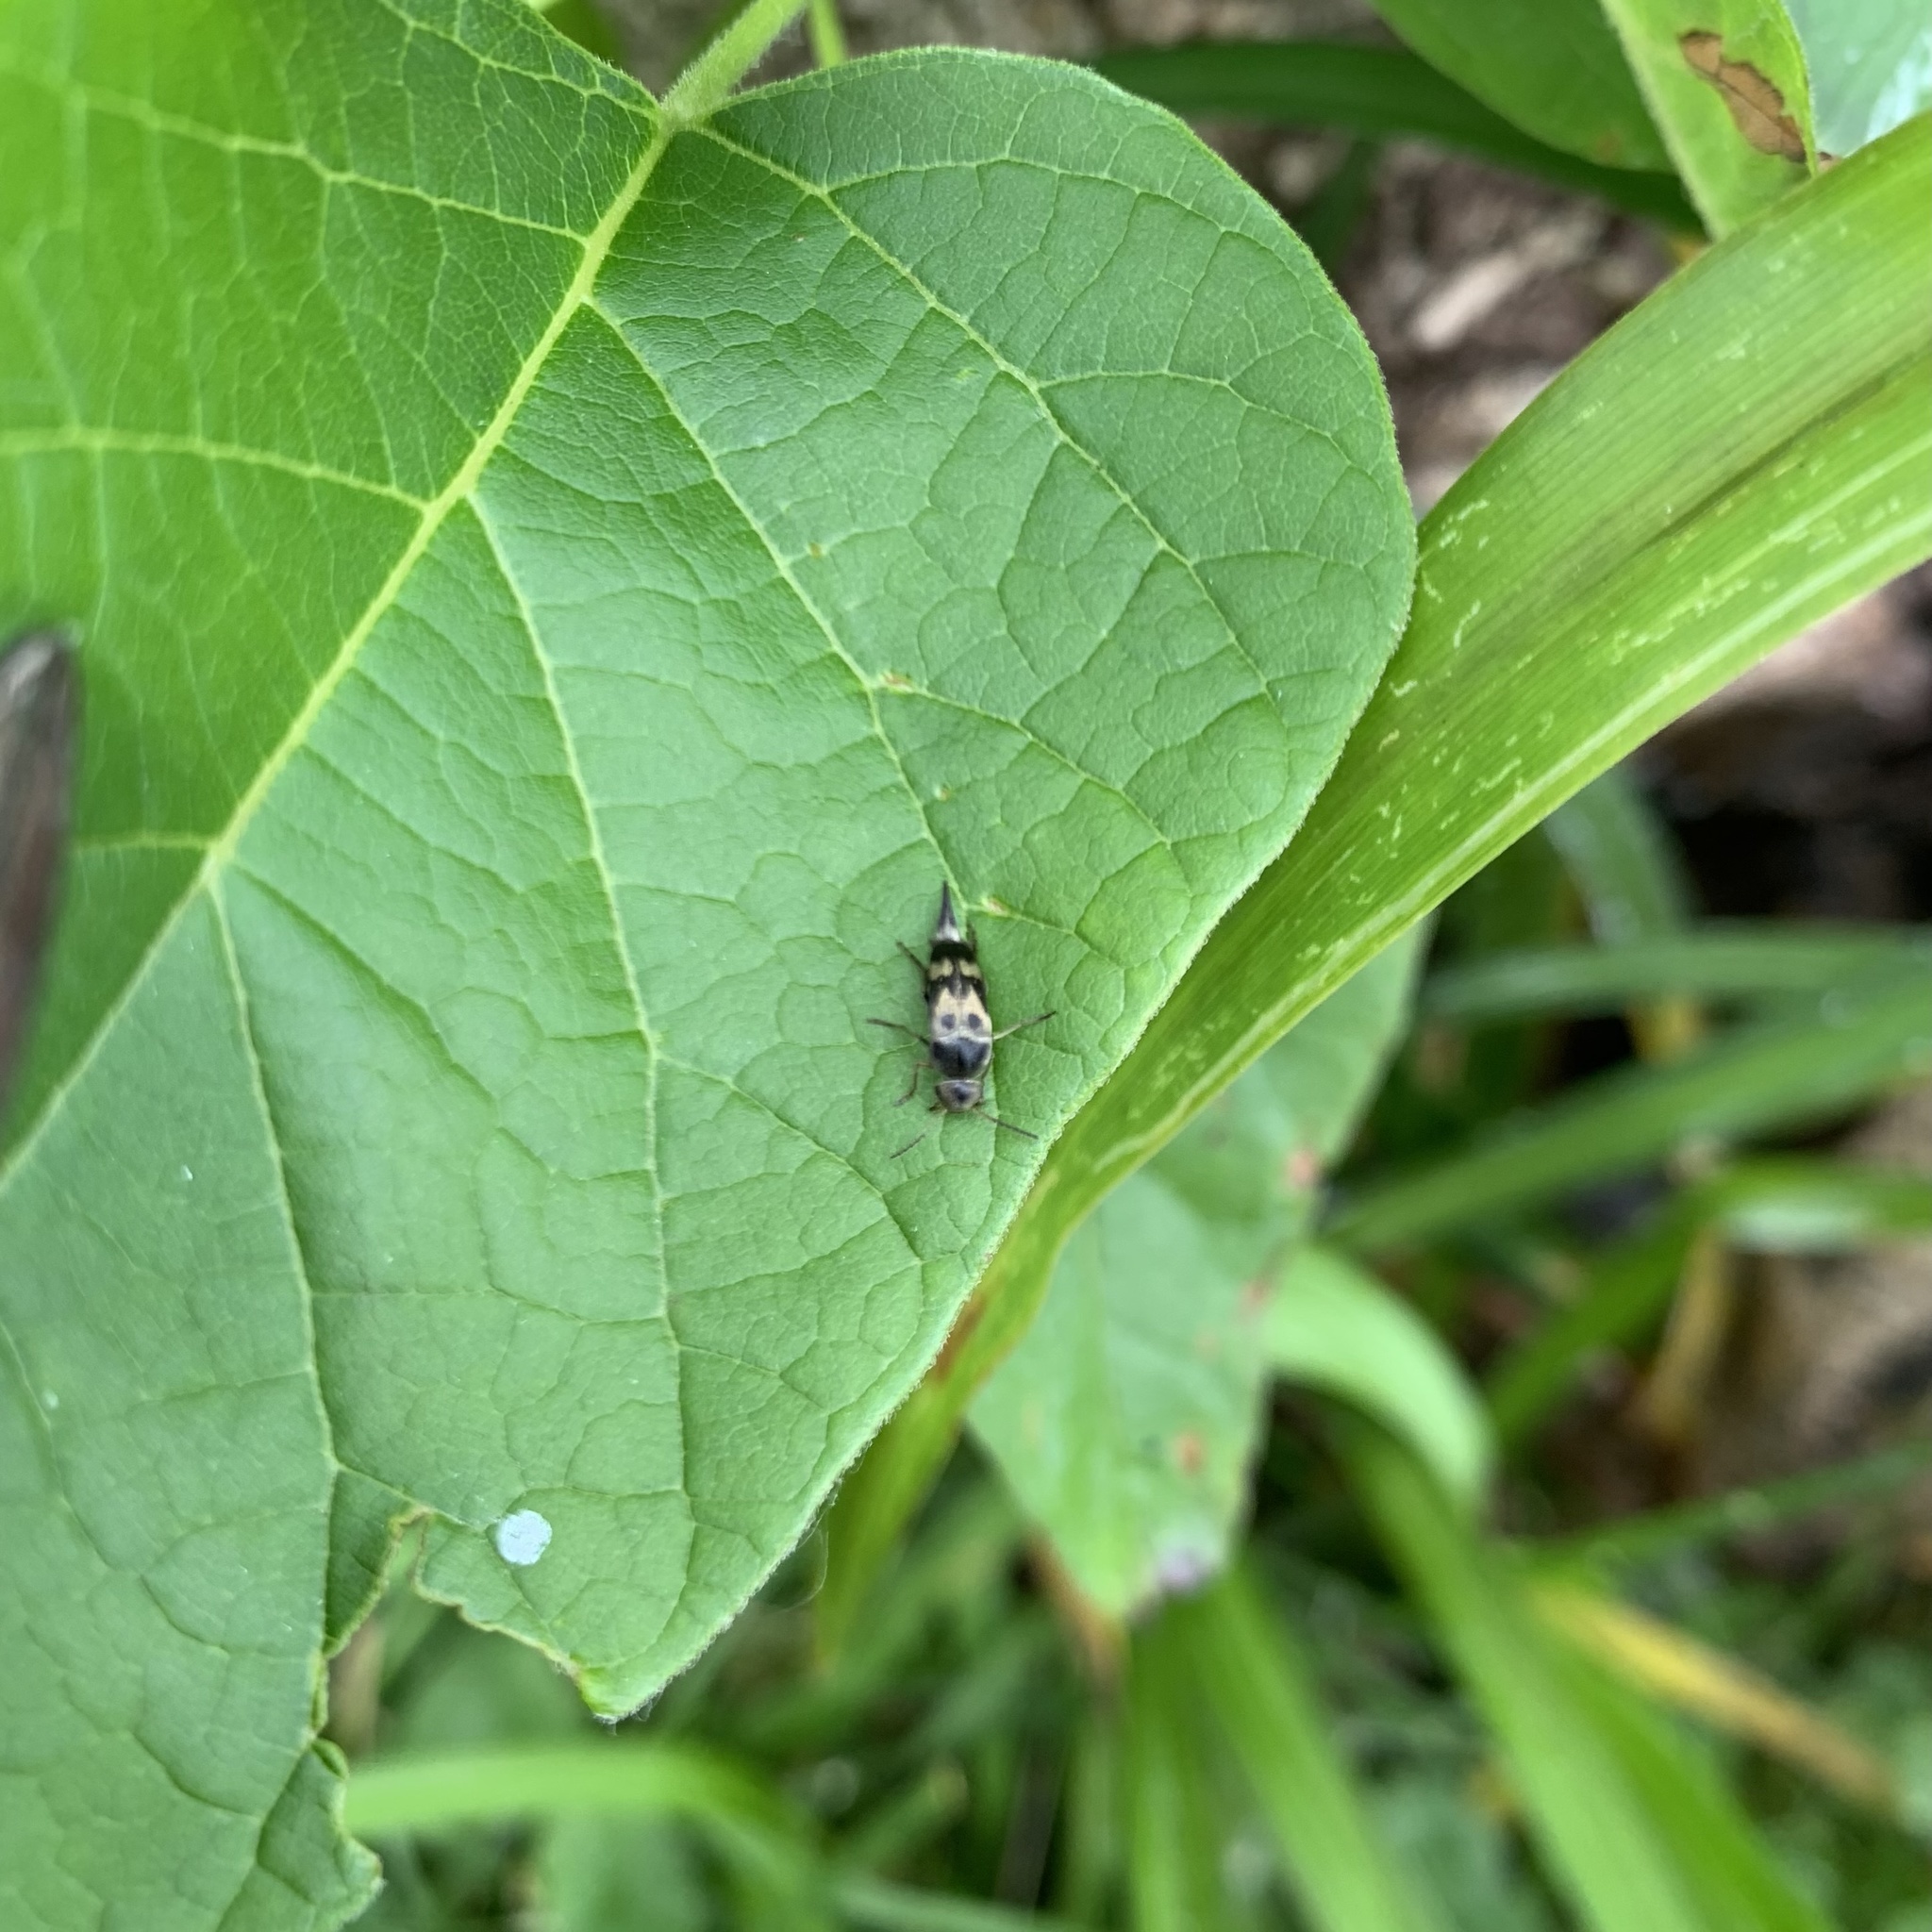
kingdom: Animalia
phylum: Arthropoda
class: Insecta
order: Coleoptera
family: Mordellidae
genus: Glipa
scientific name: Glipa oculata
